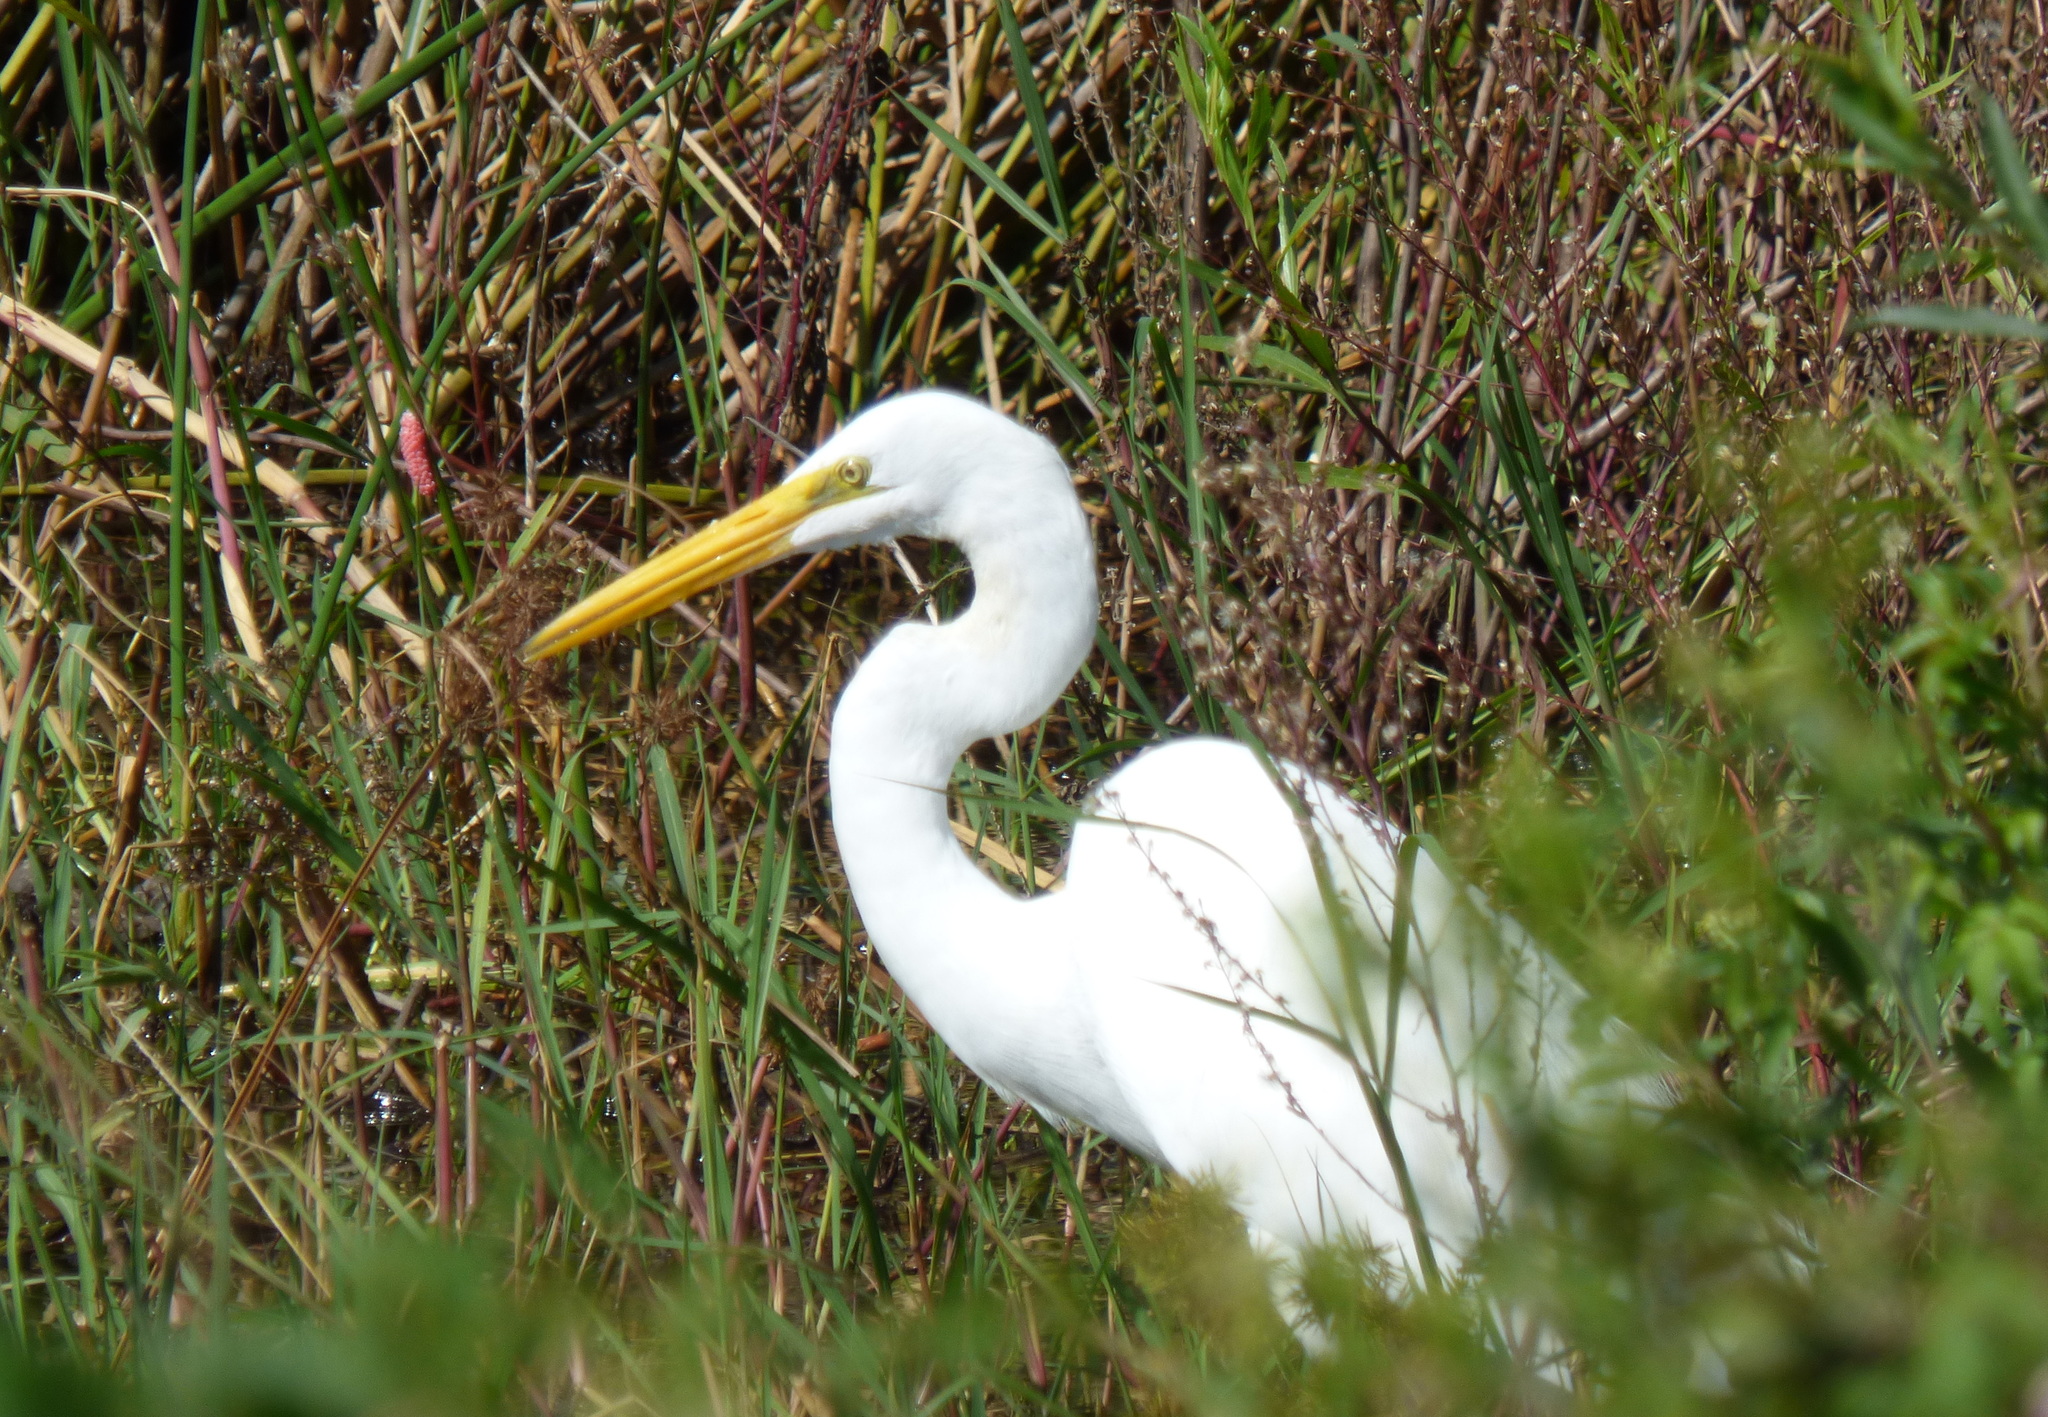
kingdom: Animalia
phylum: Chordata
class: Aves
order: Pelecaniformes
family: Ardeidae
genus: Ardea
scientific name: Ardea alba
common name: Great egret
